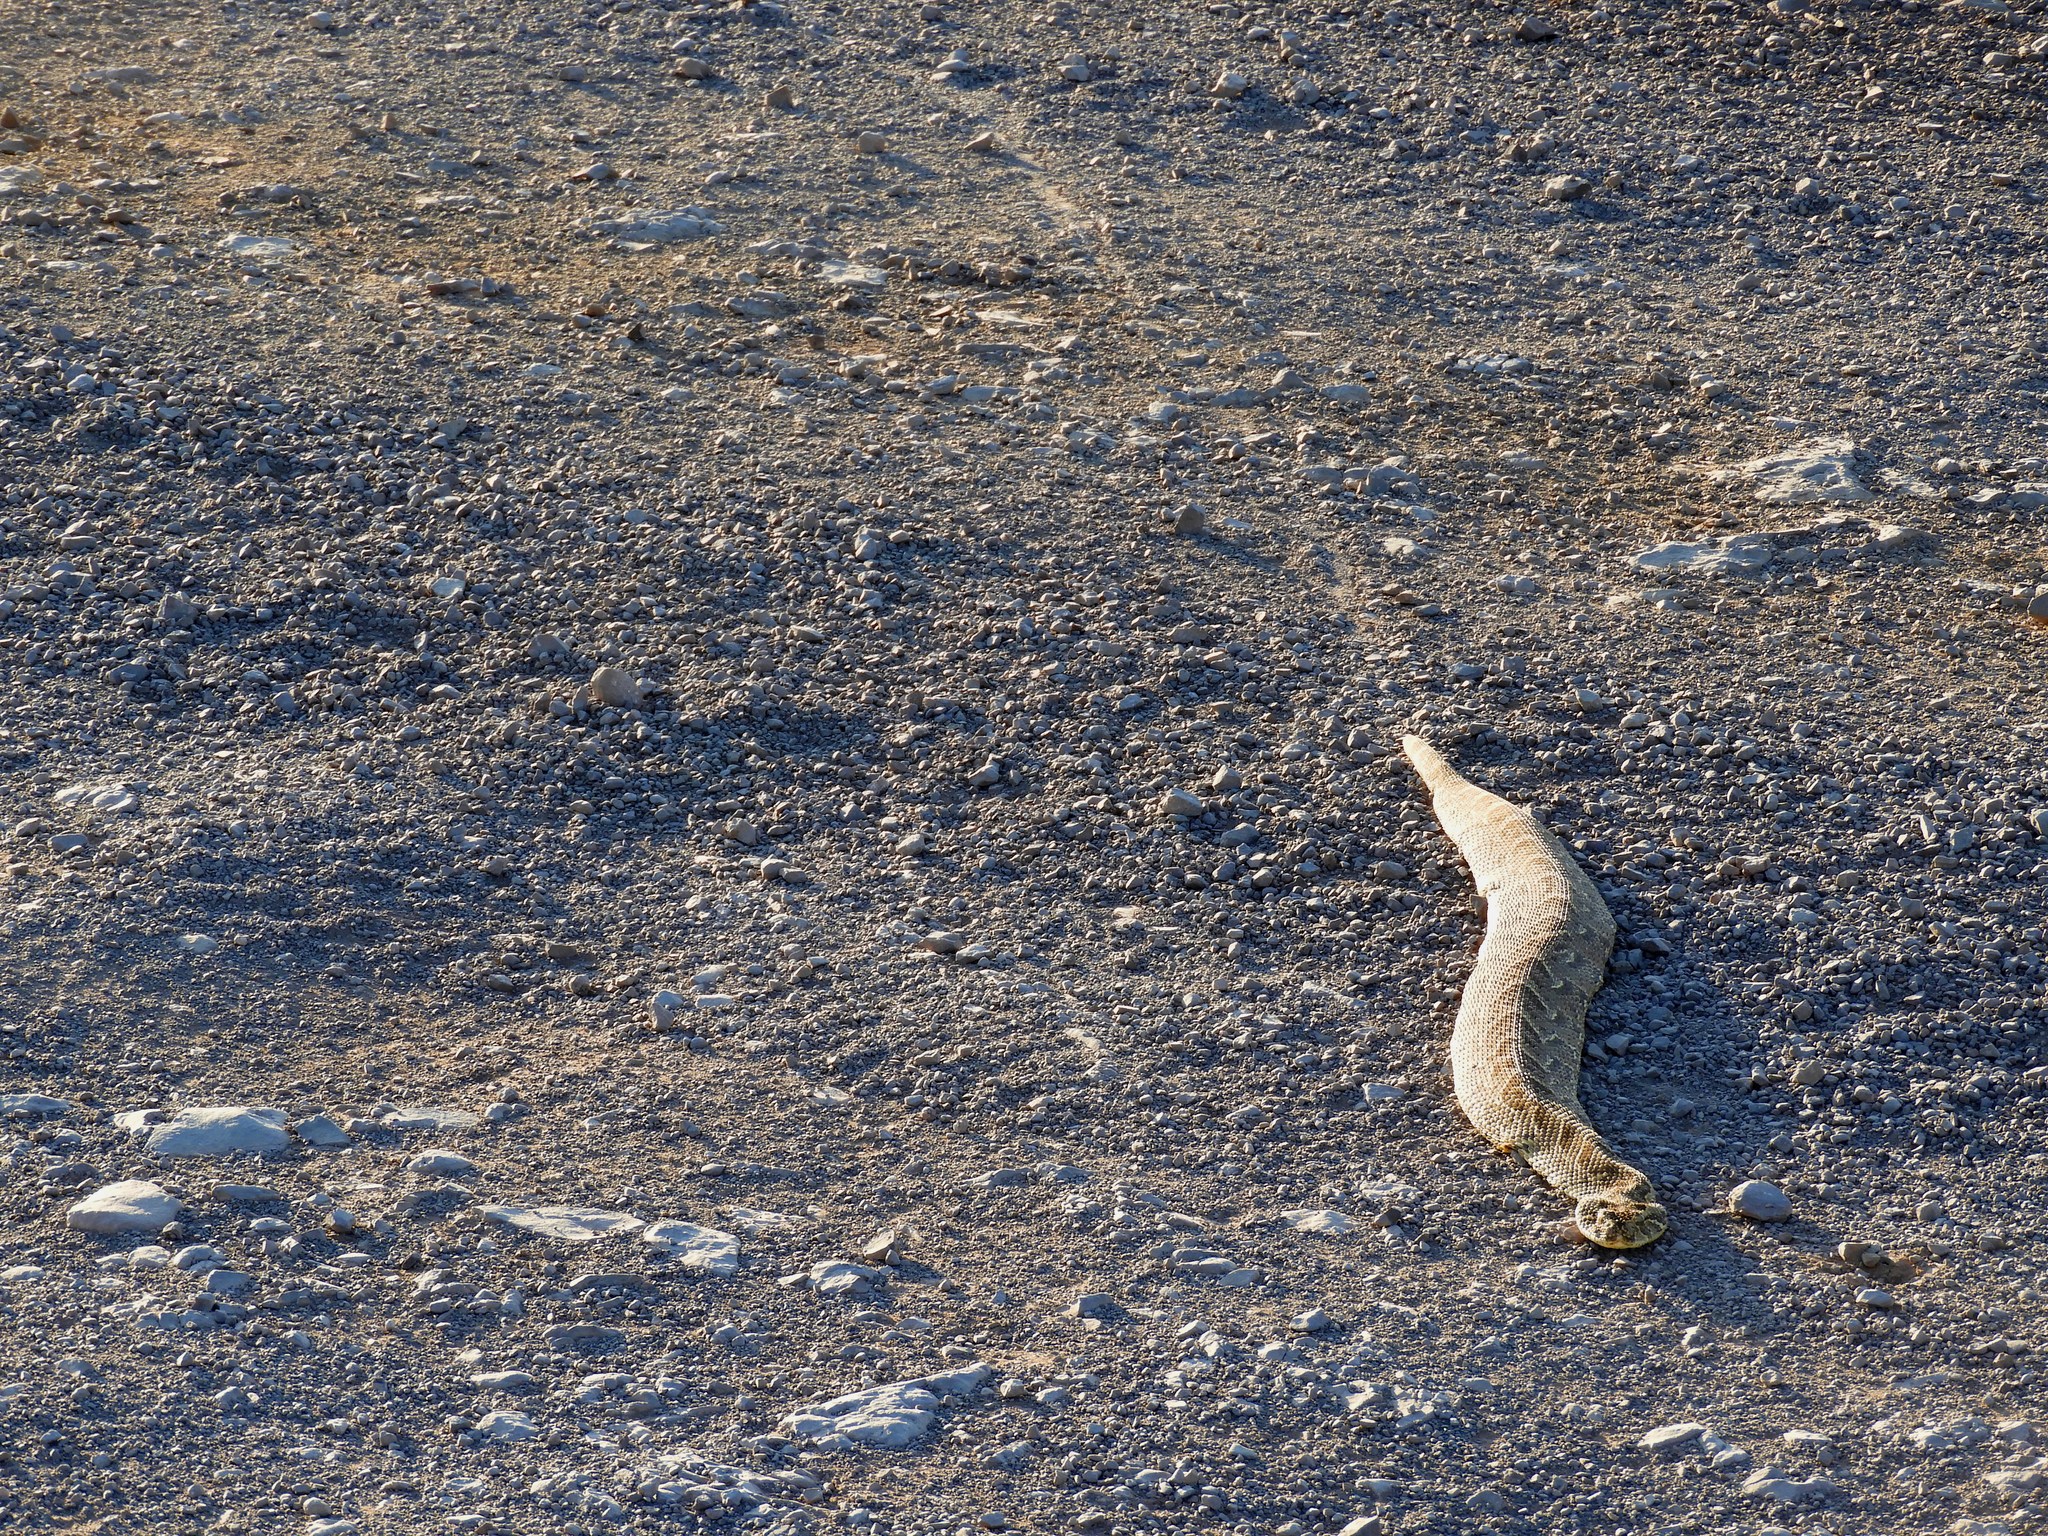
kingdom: Animalia
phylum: Chordata
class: Squamata
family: Viperidae
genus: Bitis
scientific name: Bitis arietans
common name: Puff adder
